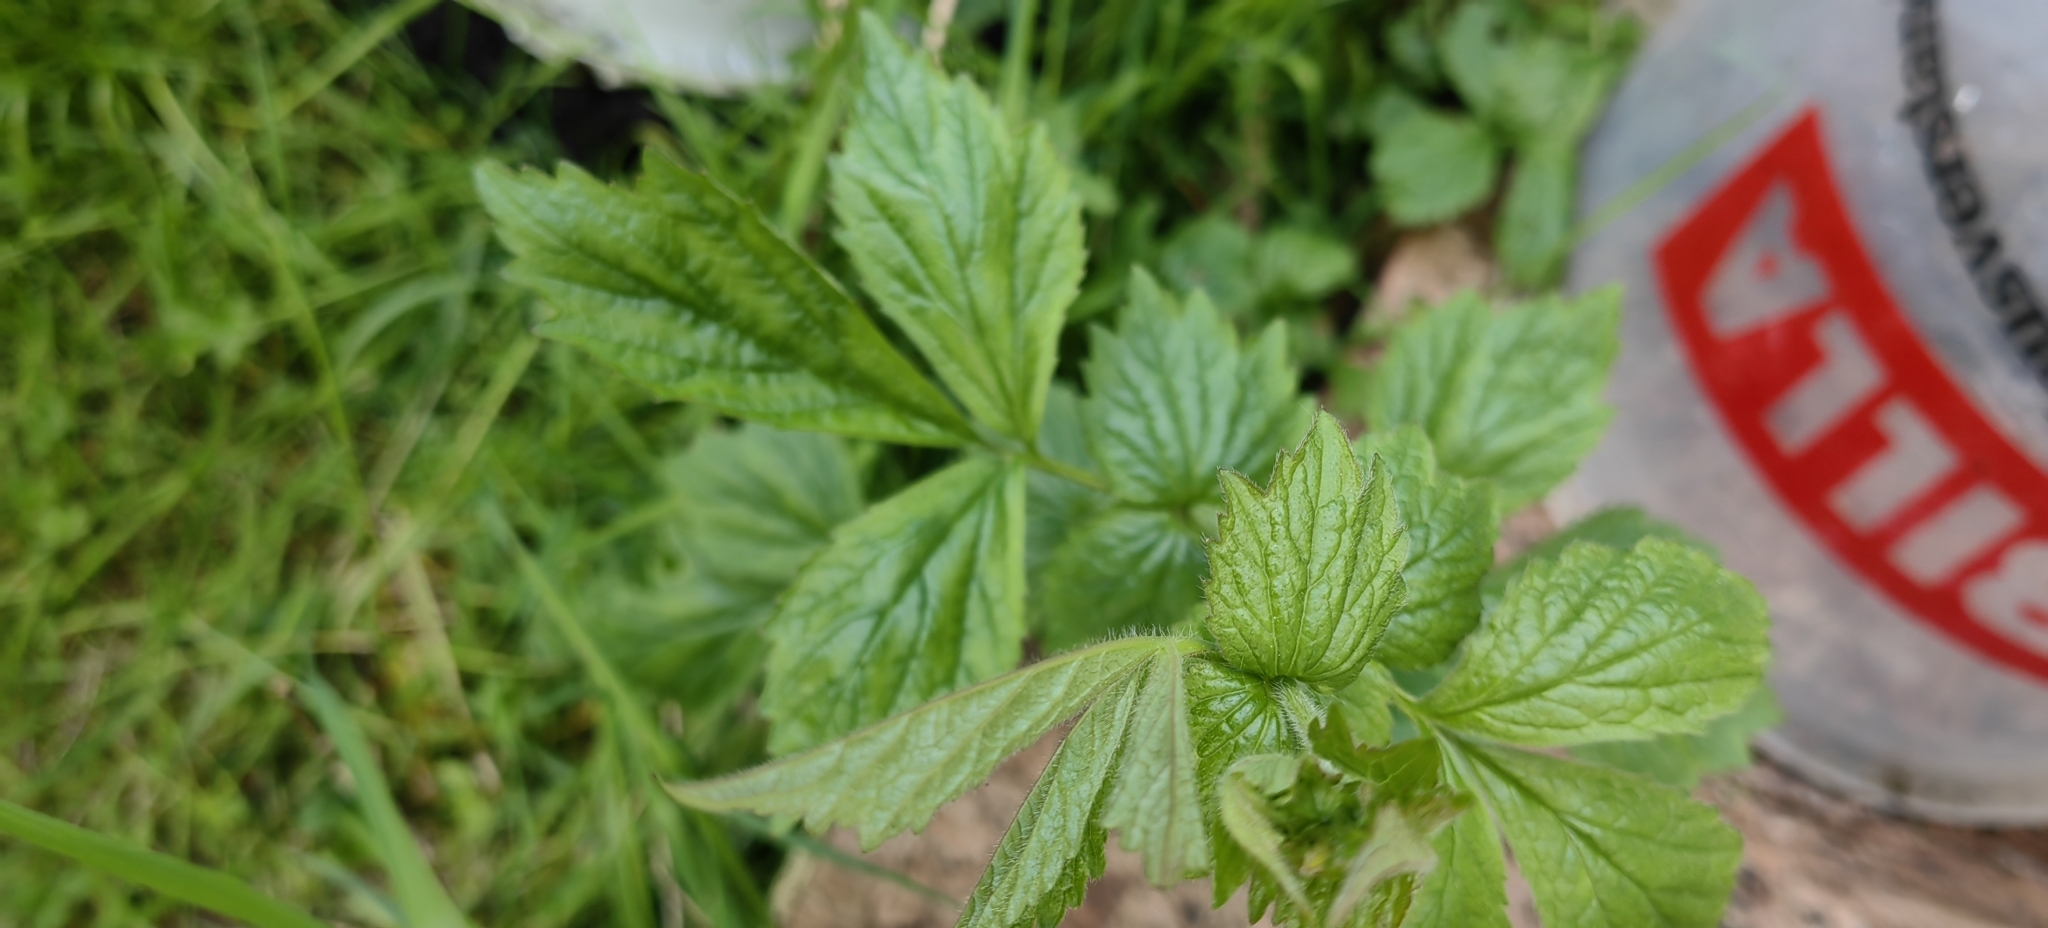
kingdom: Plantae
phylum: Tracheophyta
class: Magnoliopsida
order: Rosales
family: Rosaceae
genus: Geum
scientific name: Geum urbanum
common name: Wood avens
